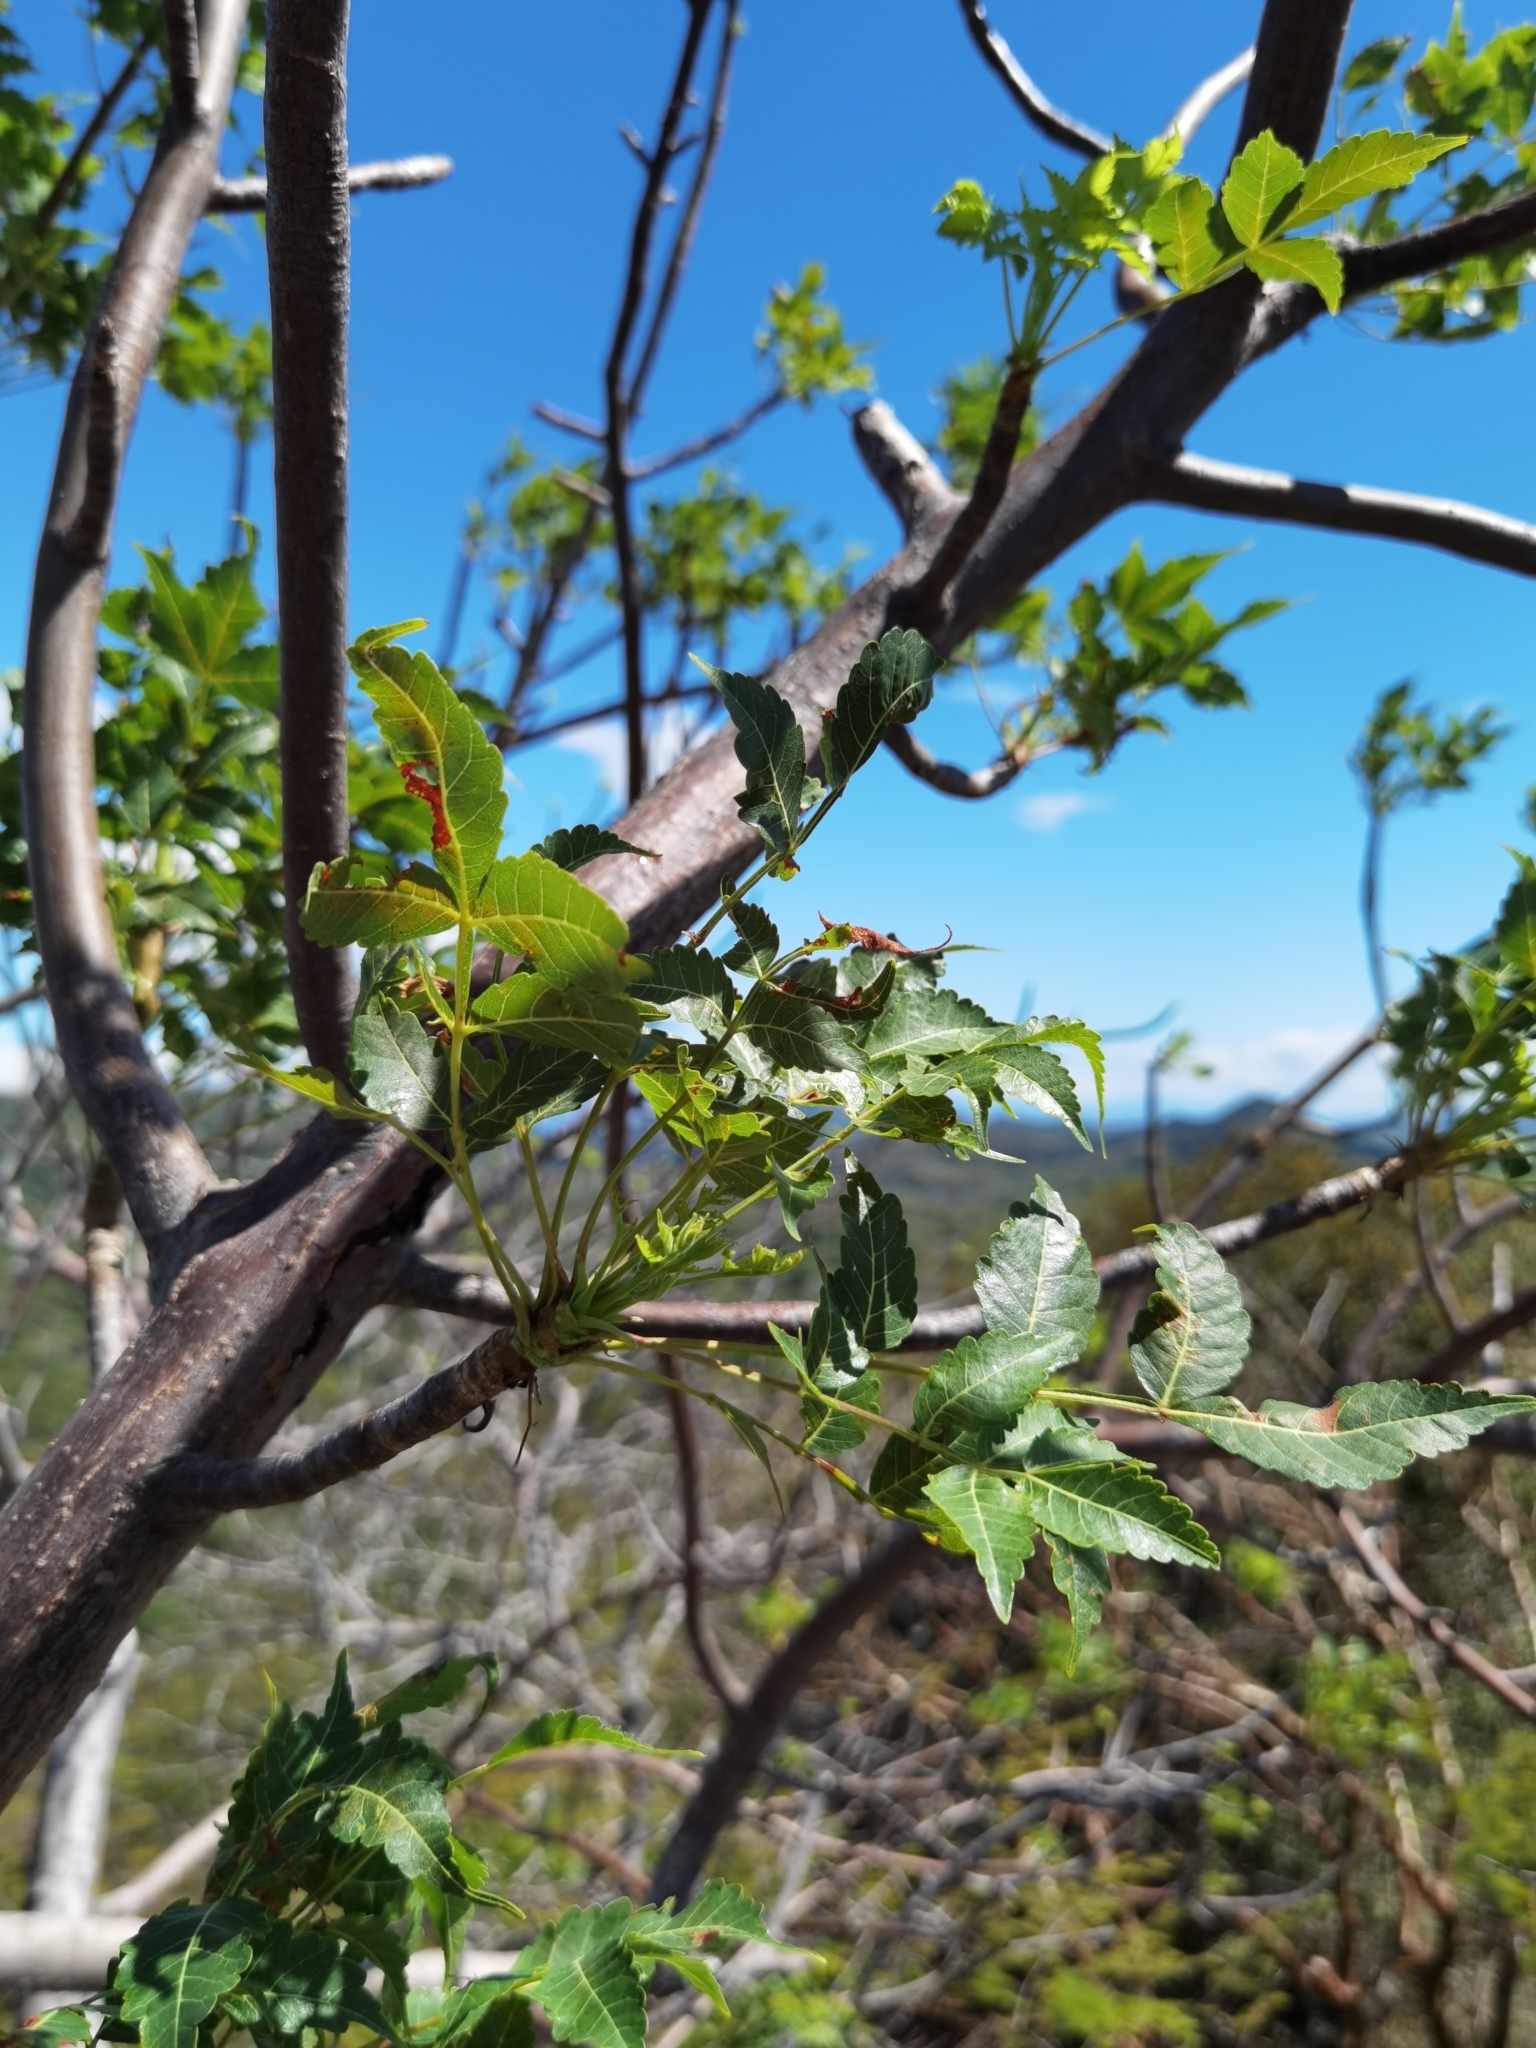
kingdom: Plantae
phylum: Tracheophyta
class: Magnoliopsida
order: Sapindales
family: Burseraceae
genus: Bursera
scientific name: Bursera graveolens
